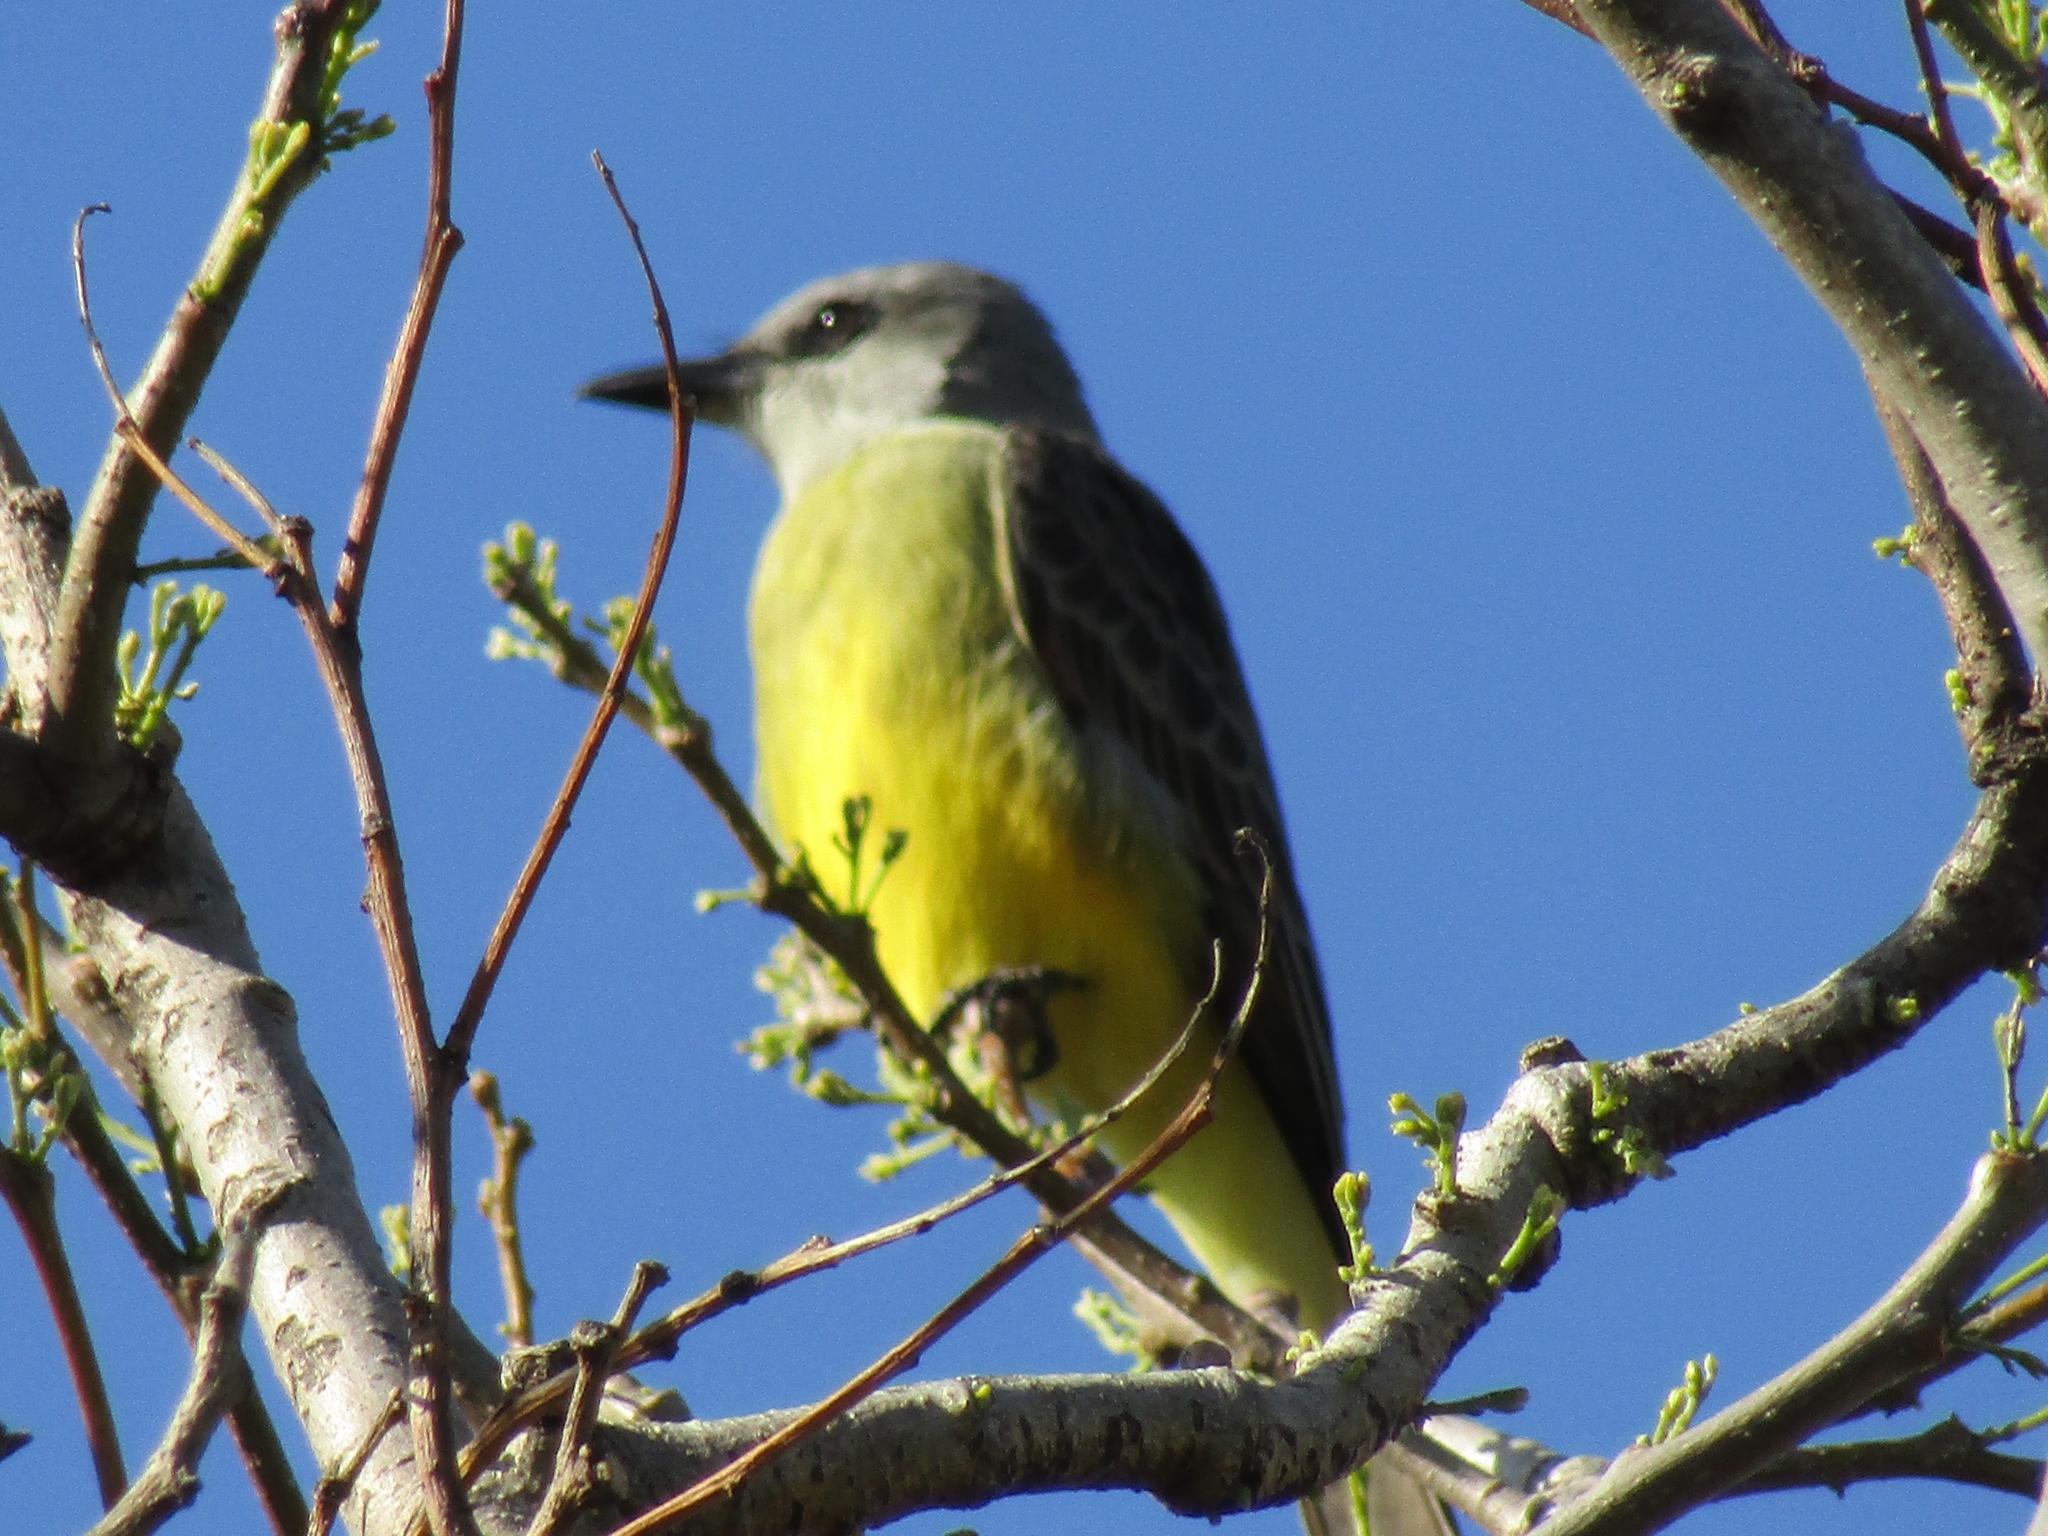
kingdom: Animalia
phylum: Chordata
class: Aves
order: Passeriformes
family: Tyrannidae
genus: Tyrannus
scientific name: Tyrannus melancholicus
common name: Tropical kingbird
